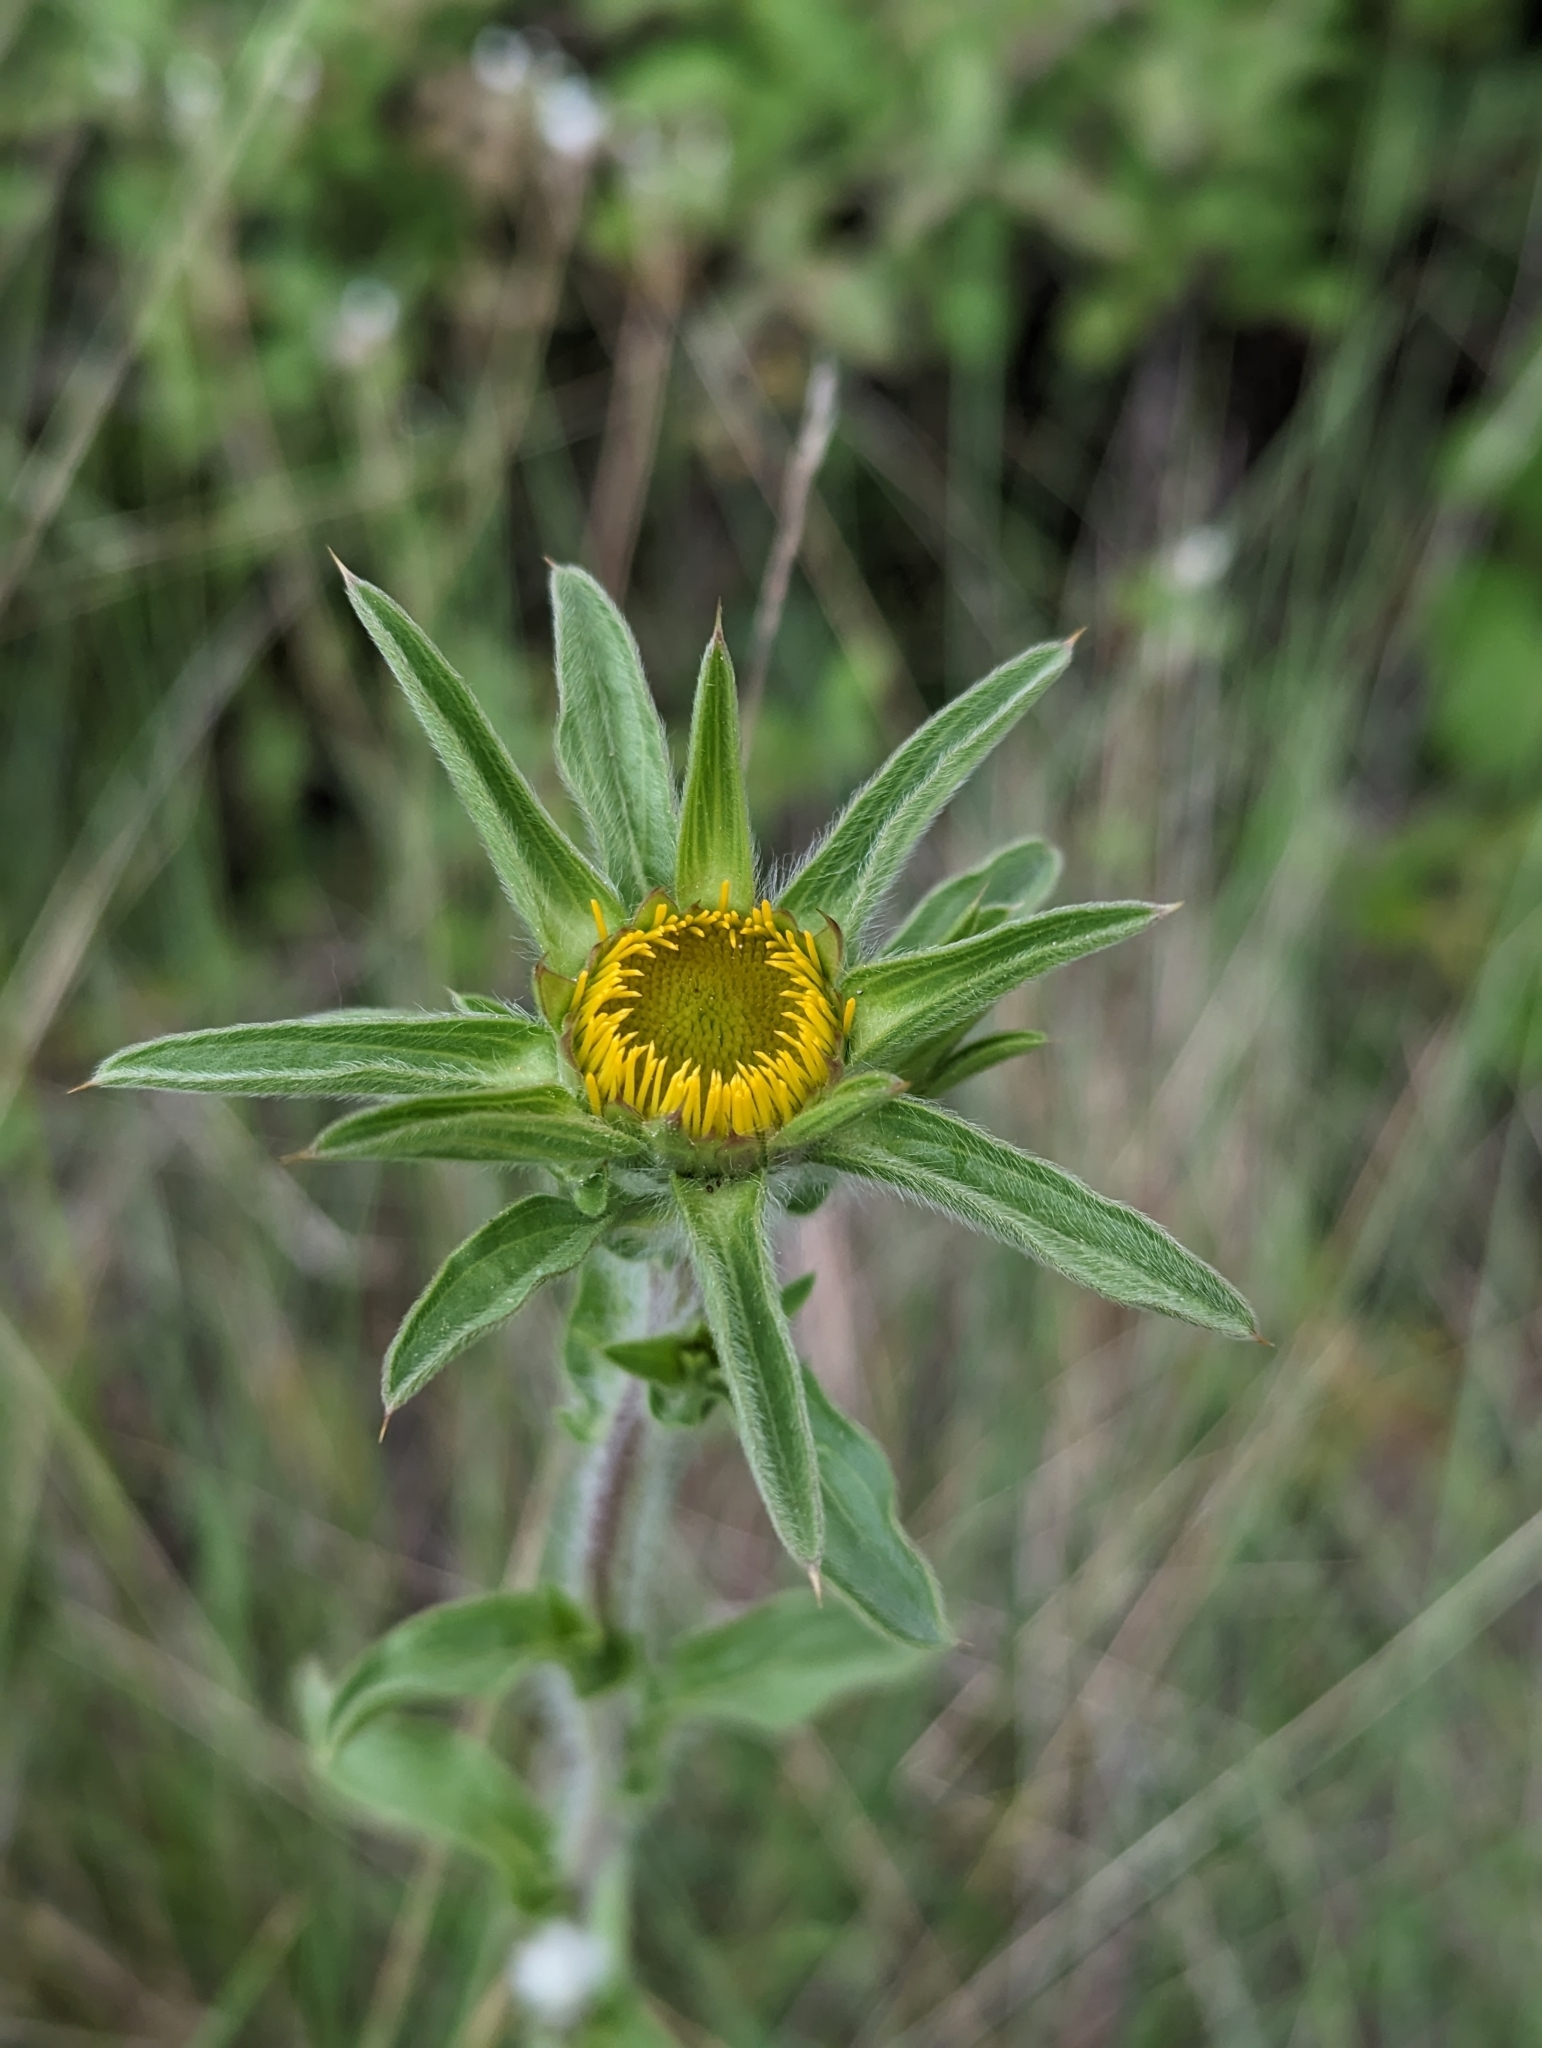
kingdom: Plantae
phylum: Tracheophyta
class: Magnoliopsida
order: Asterales
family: Asteraceae
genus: Pallenis
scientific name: Pallenis spinosa
